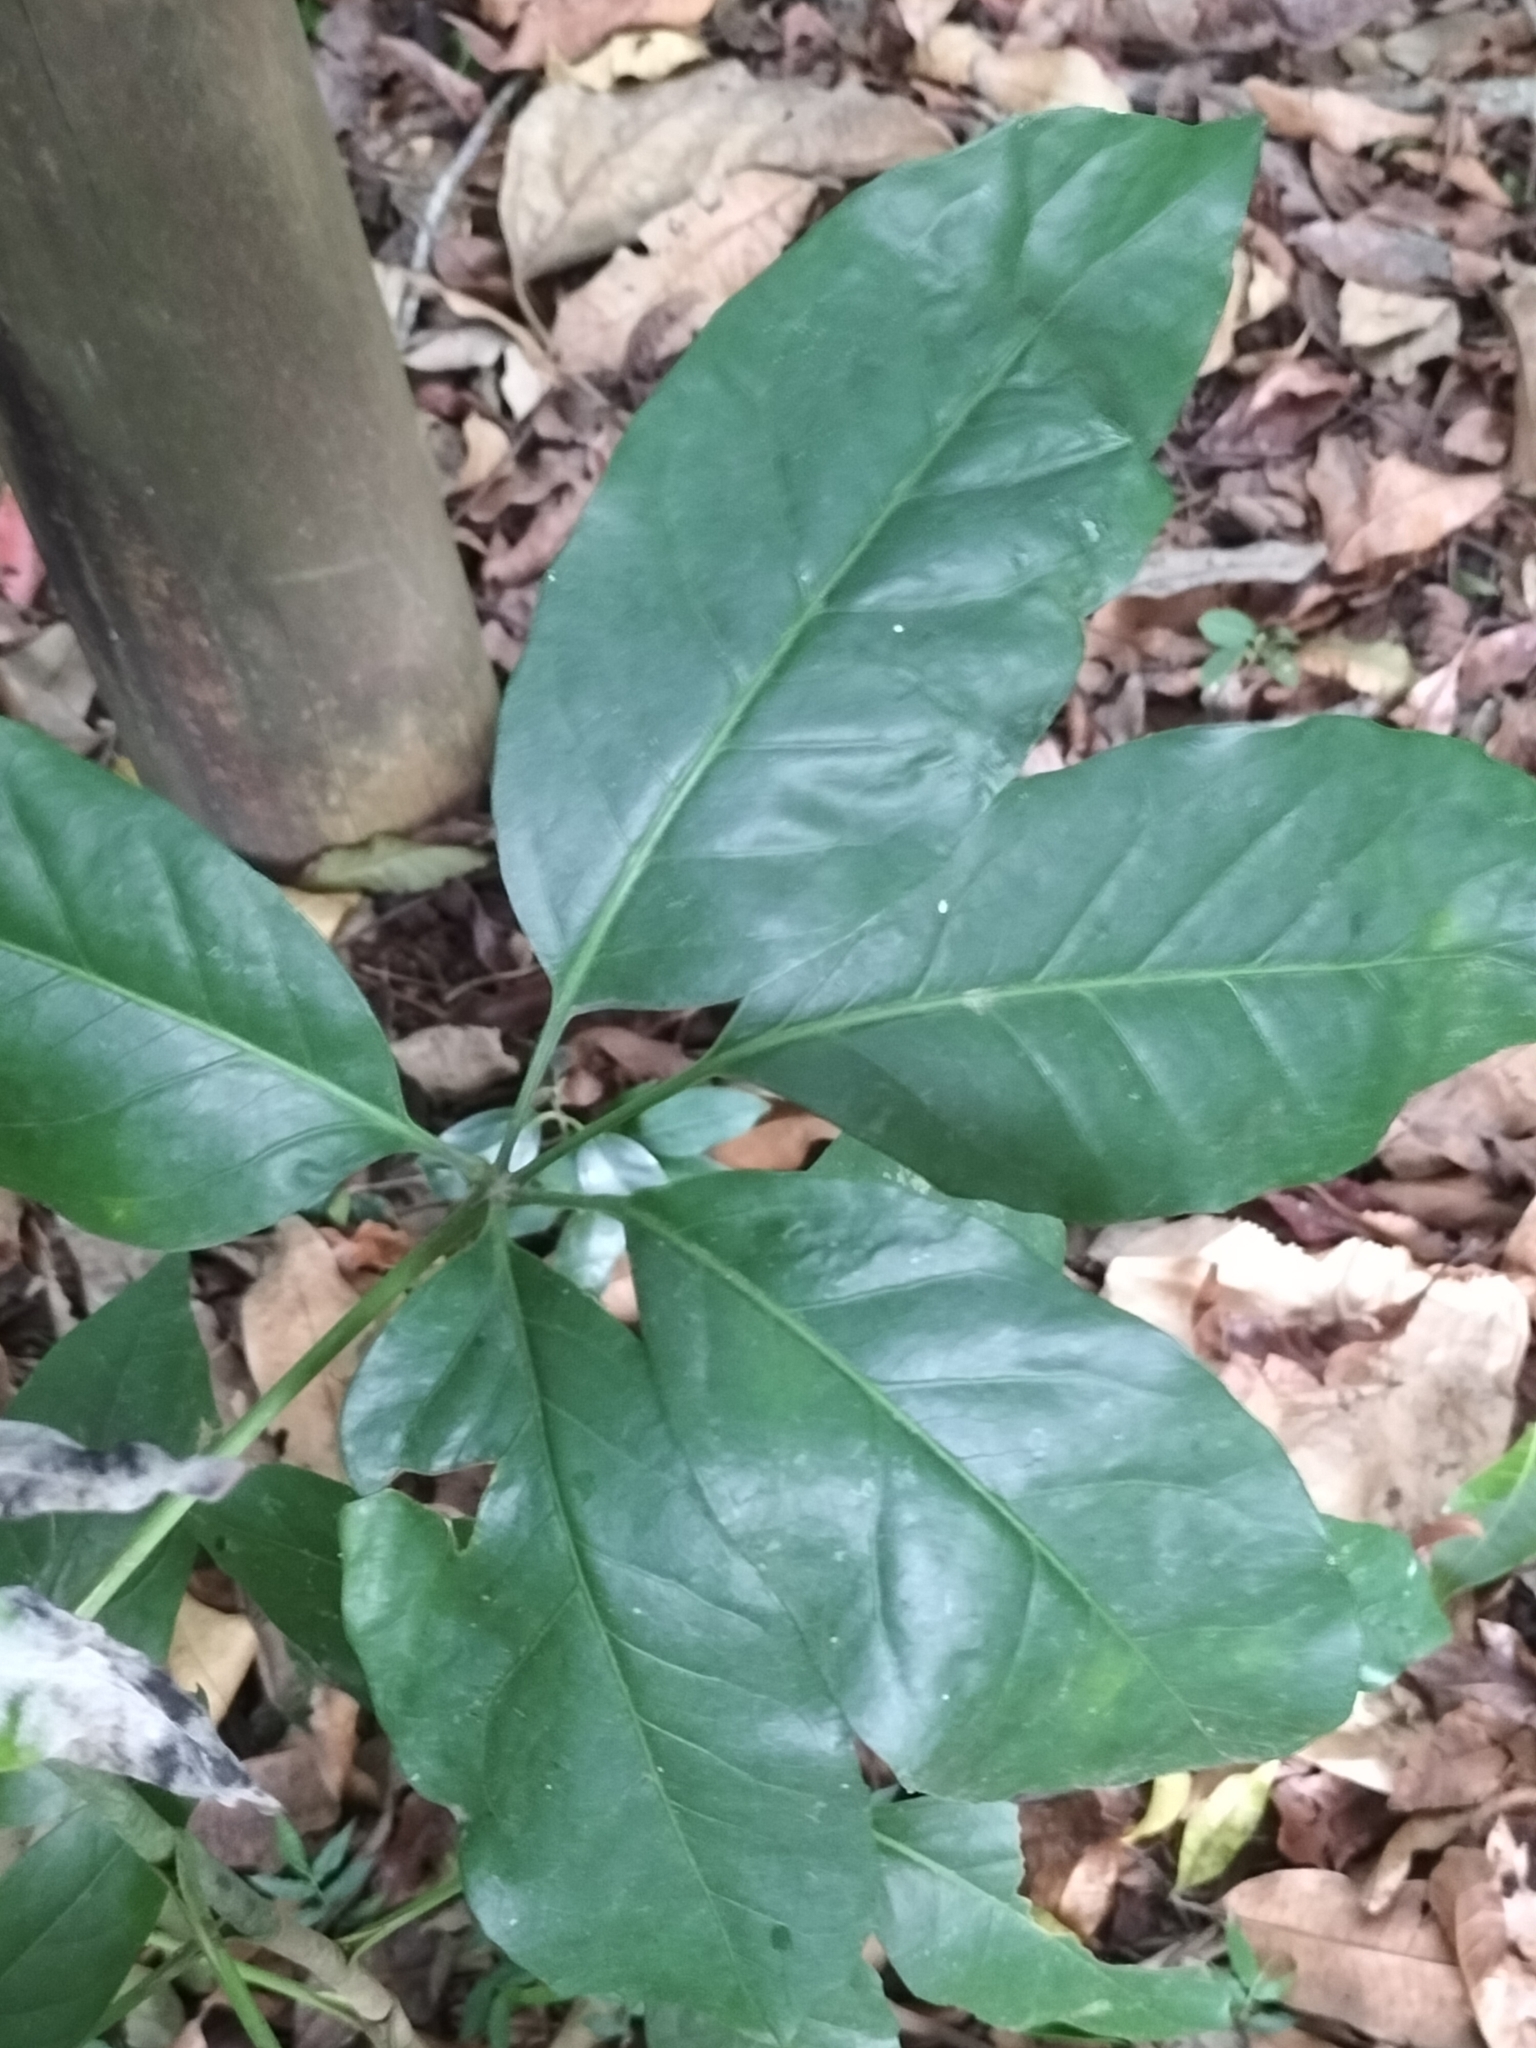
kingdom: Plantae
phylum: Tracheophyta
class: Magnoliopsida
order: Apiales
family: Apiaceae
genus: Mackinlaya
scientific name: Mackinlaya macrosciadea
